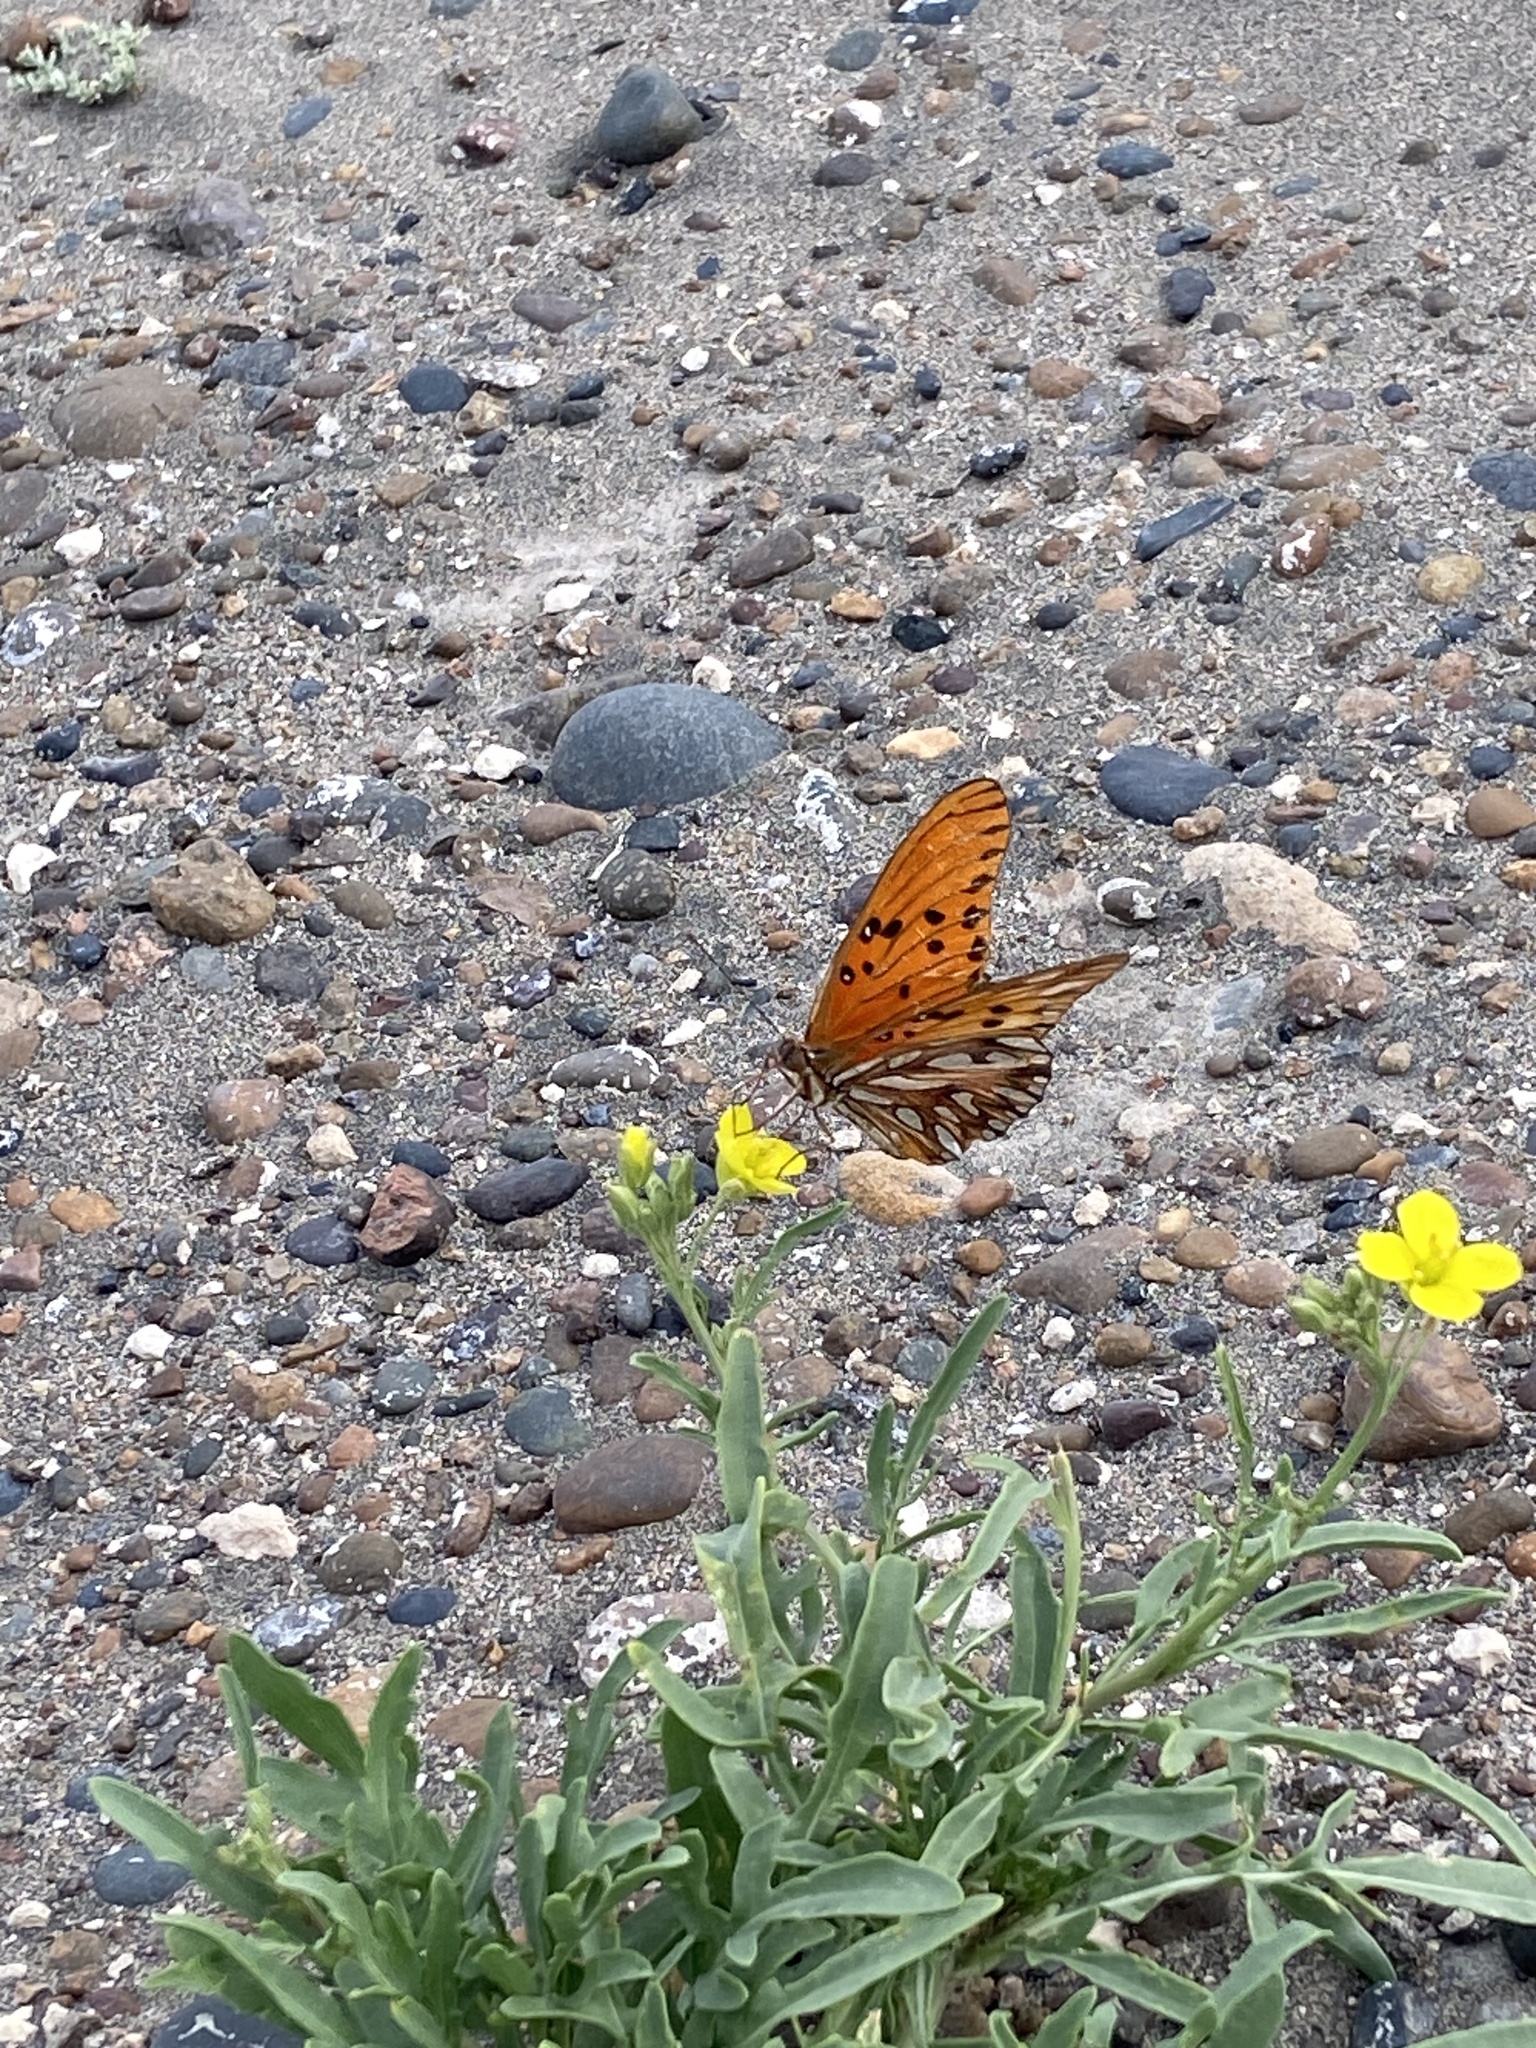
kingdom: Animalia
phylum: Arthropoda
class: Insecta
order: Lepidoptera
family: Nymphalidae
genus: Dione
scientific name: Dione vanillae
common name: Gulf fritillary
